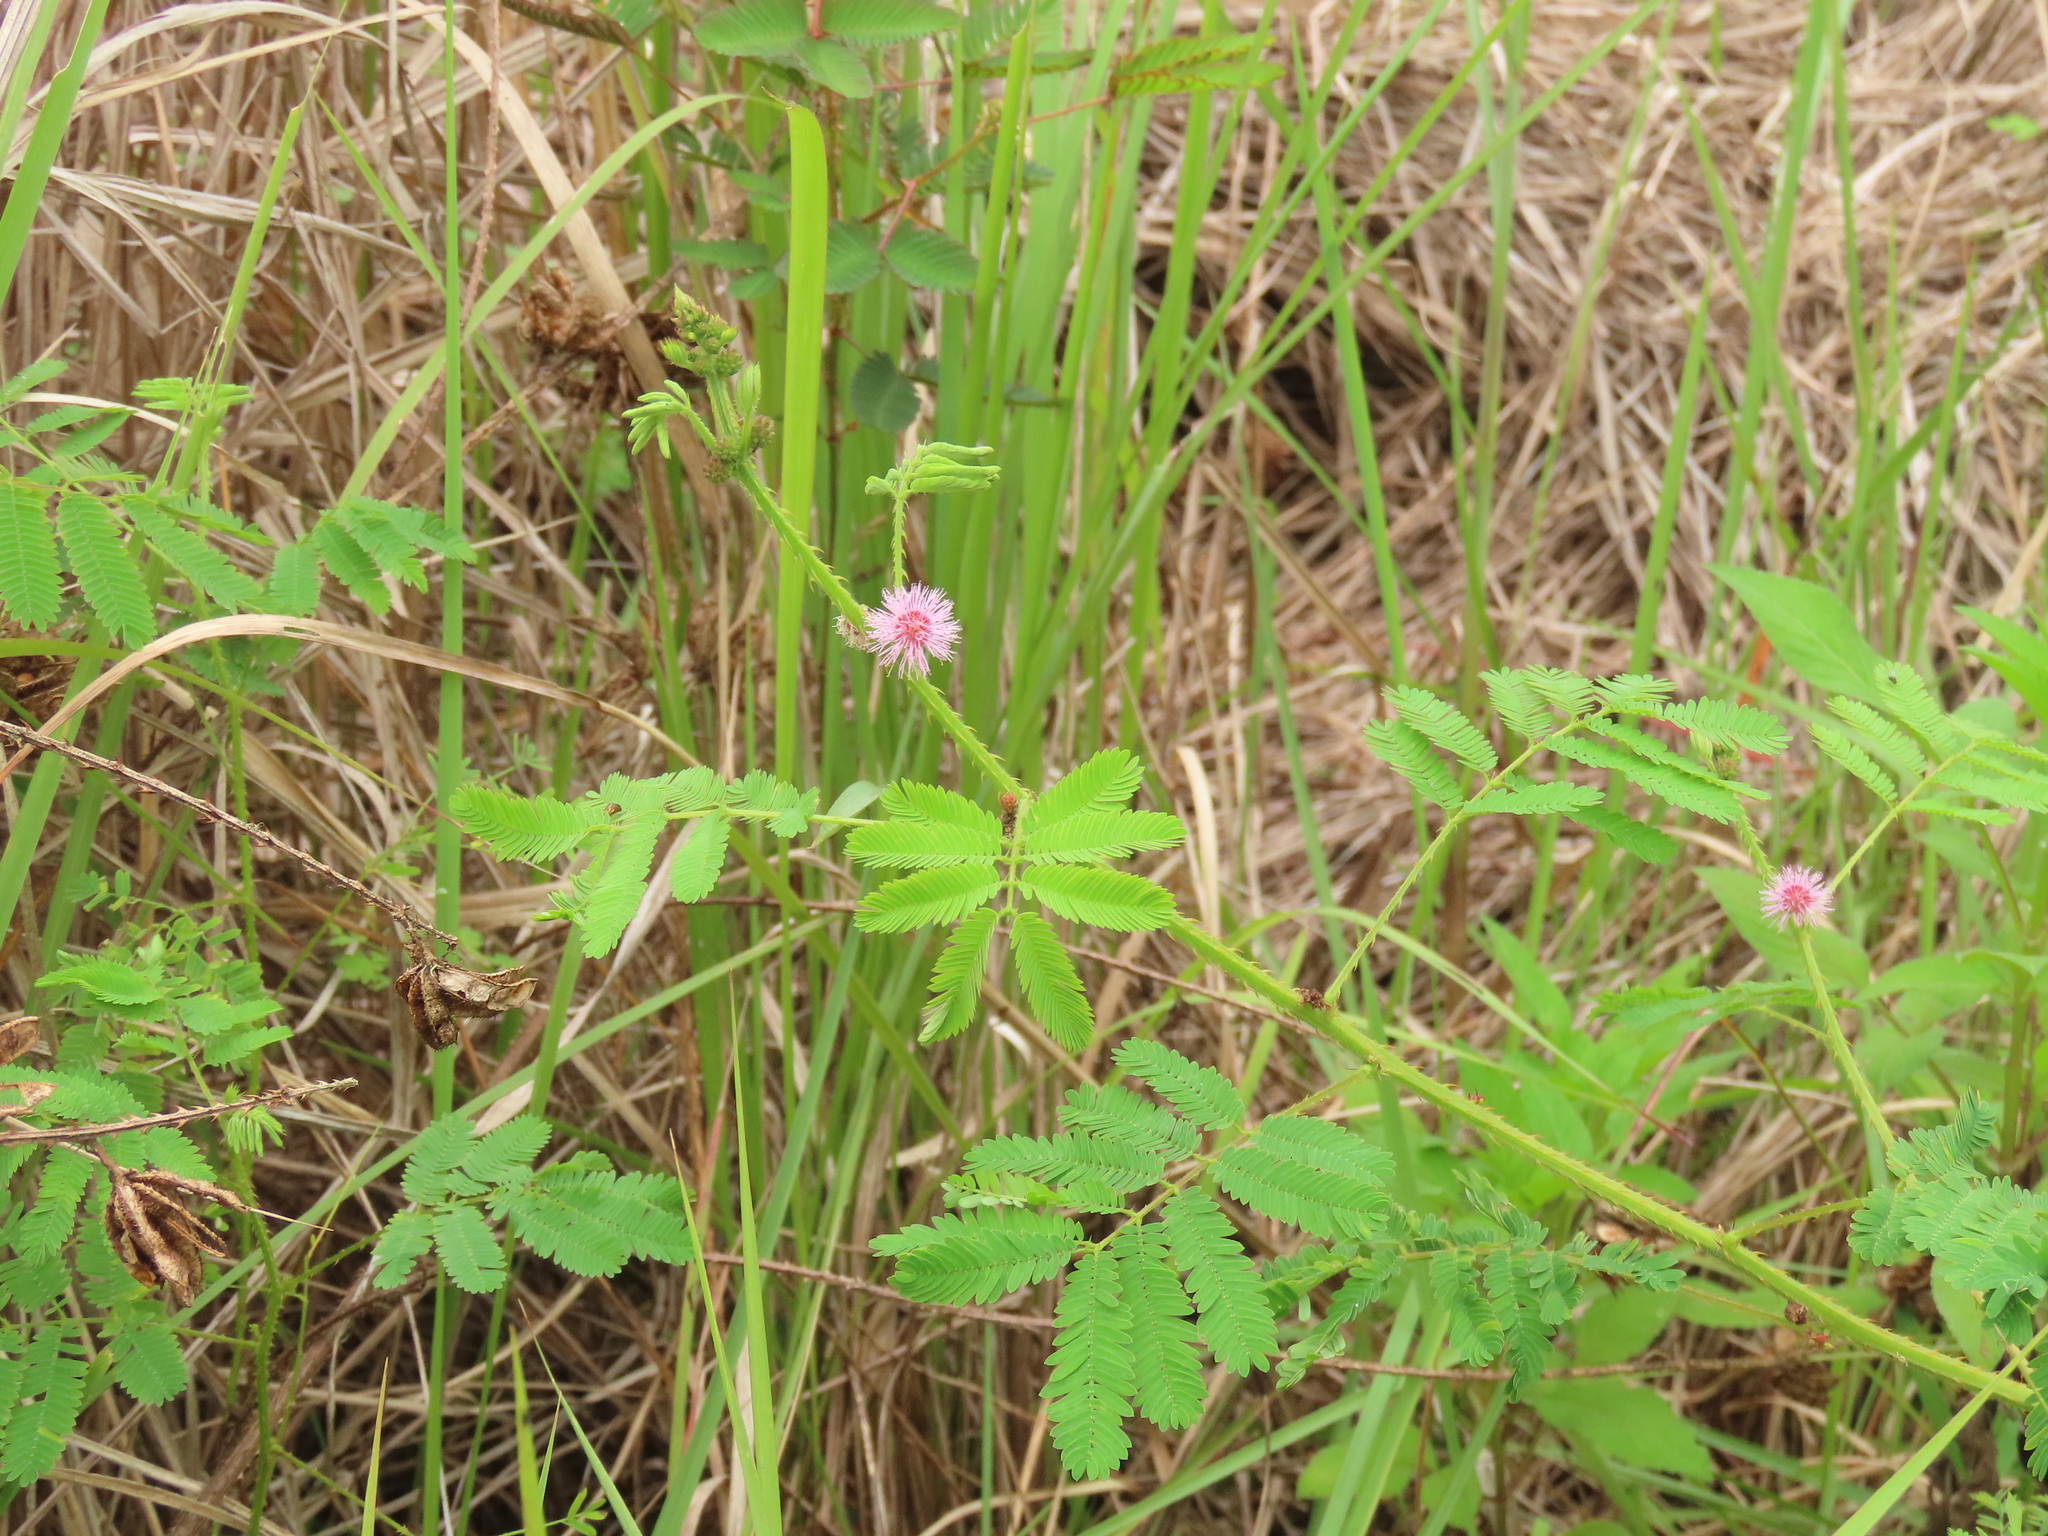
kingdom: Plantae
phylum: Tracheophyta
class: Magnoliopsida
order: Fabales
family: Fabaceae
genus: Mimosa
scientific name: Mimosa diplotricha
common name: Giant sensitive-plant
